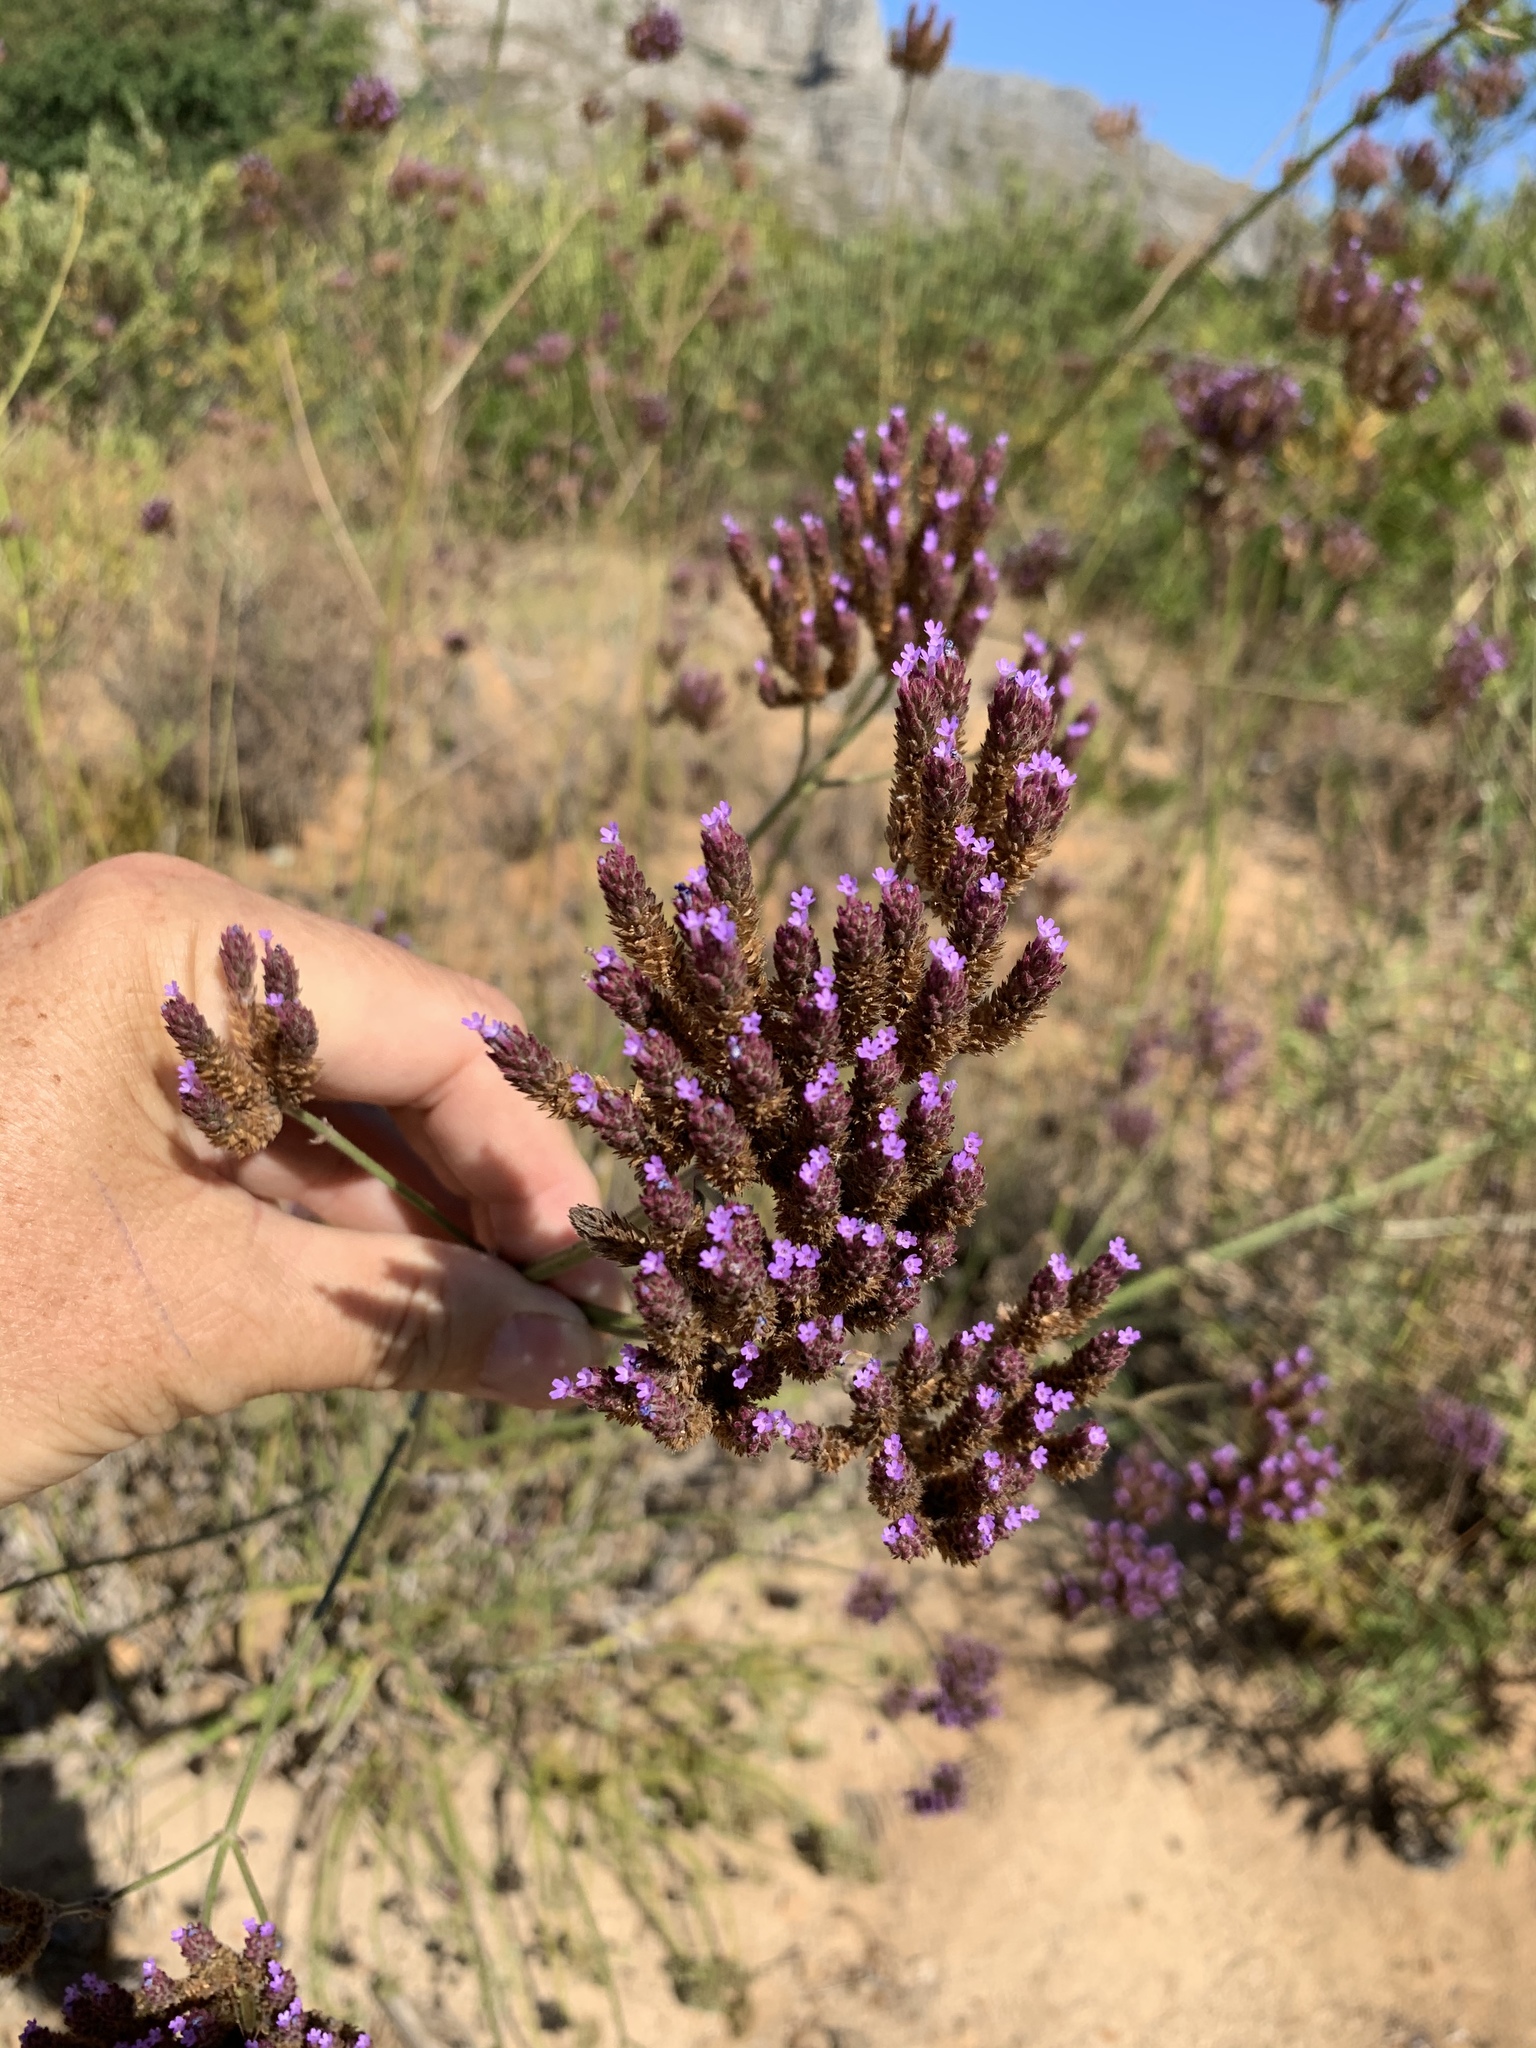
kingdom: Plantae
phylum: Tracheophyta
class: Magnoliopsida
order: Lamiales
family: Verbenaceae
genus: Verbena
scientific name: Verbena bonariensis
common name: Purpletop vervain
